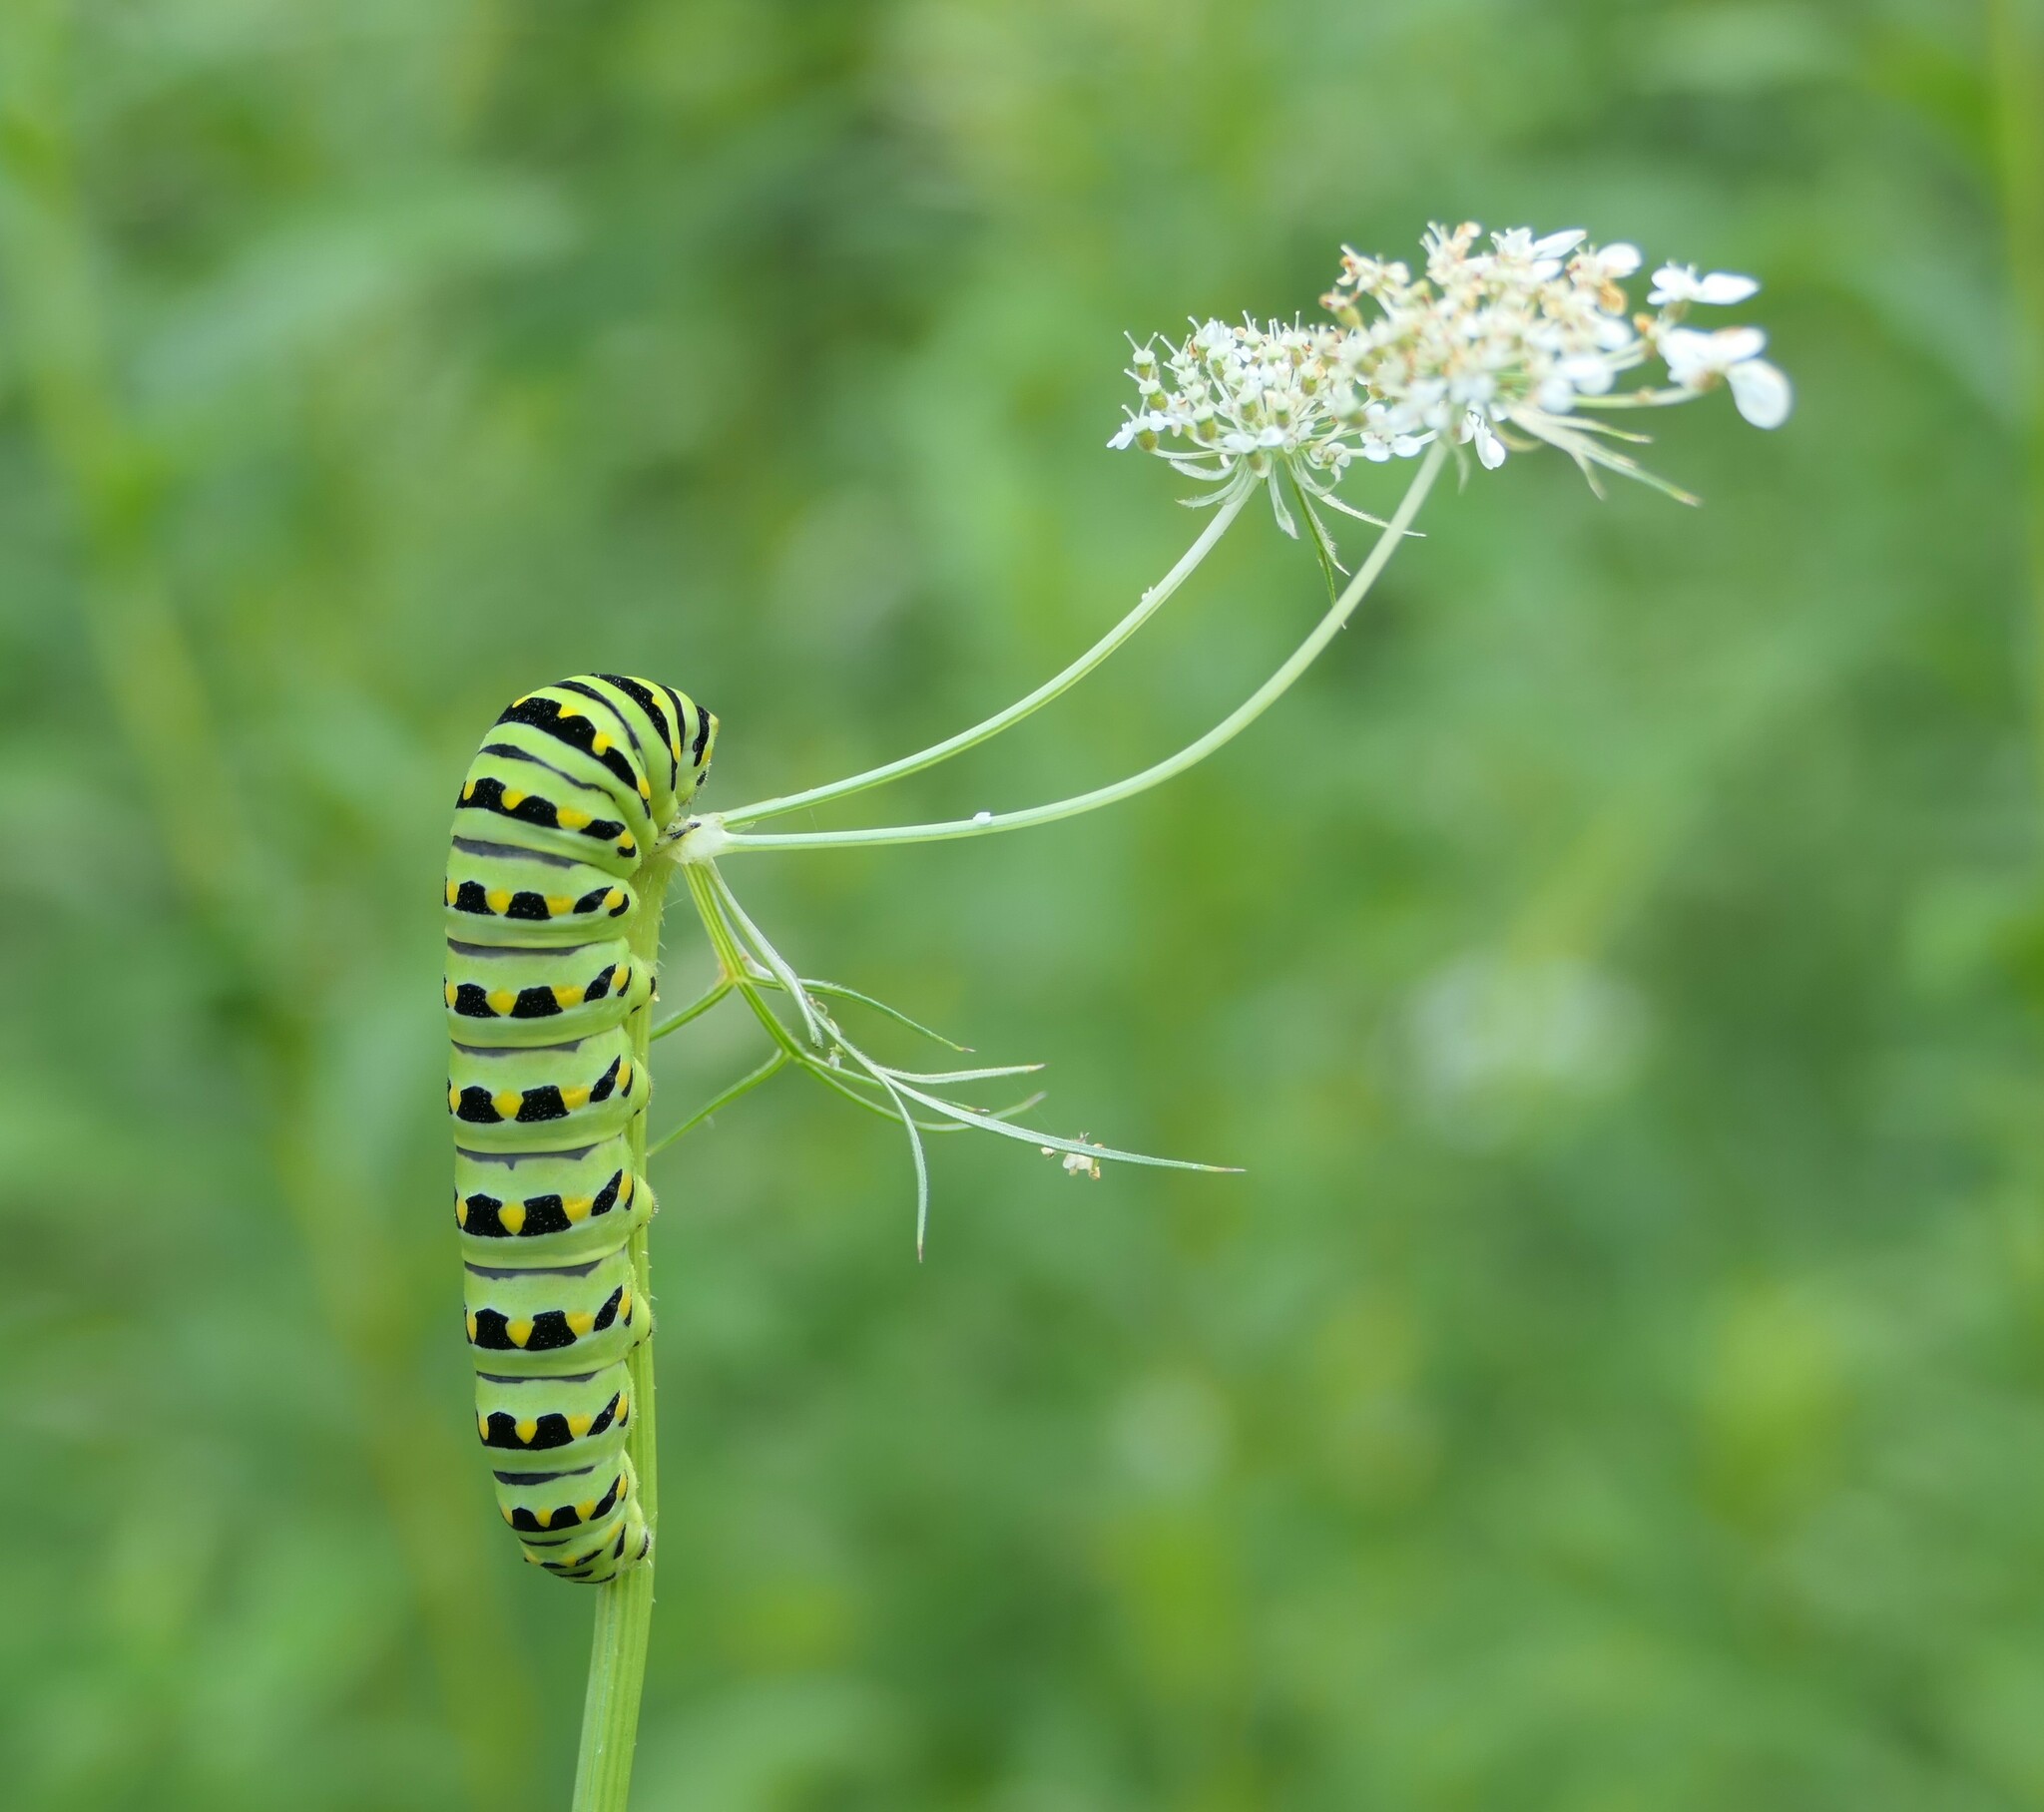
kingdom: Animalia
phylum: Arthropoda
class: Insecta
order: Lepidoptera
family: Papilionidae
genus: Papilio
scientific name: Papilio polyxenes
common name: Black swallowtail
